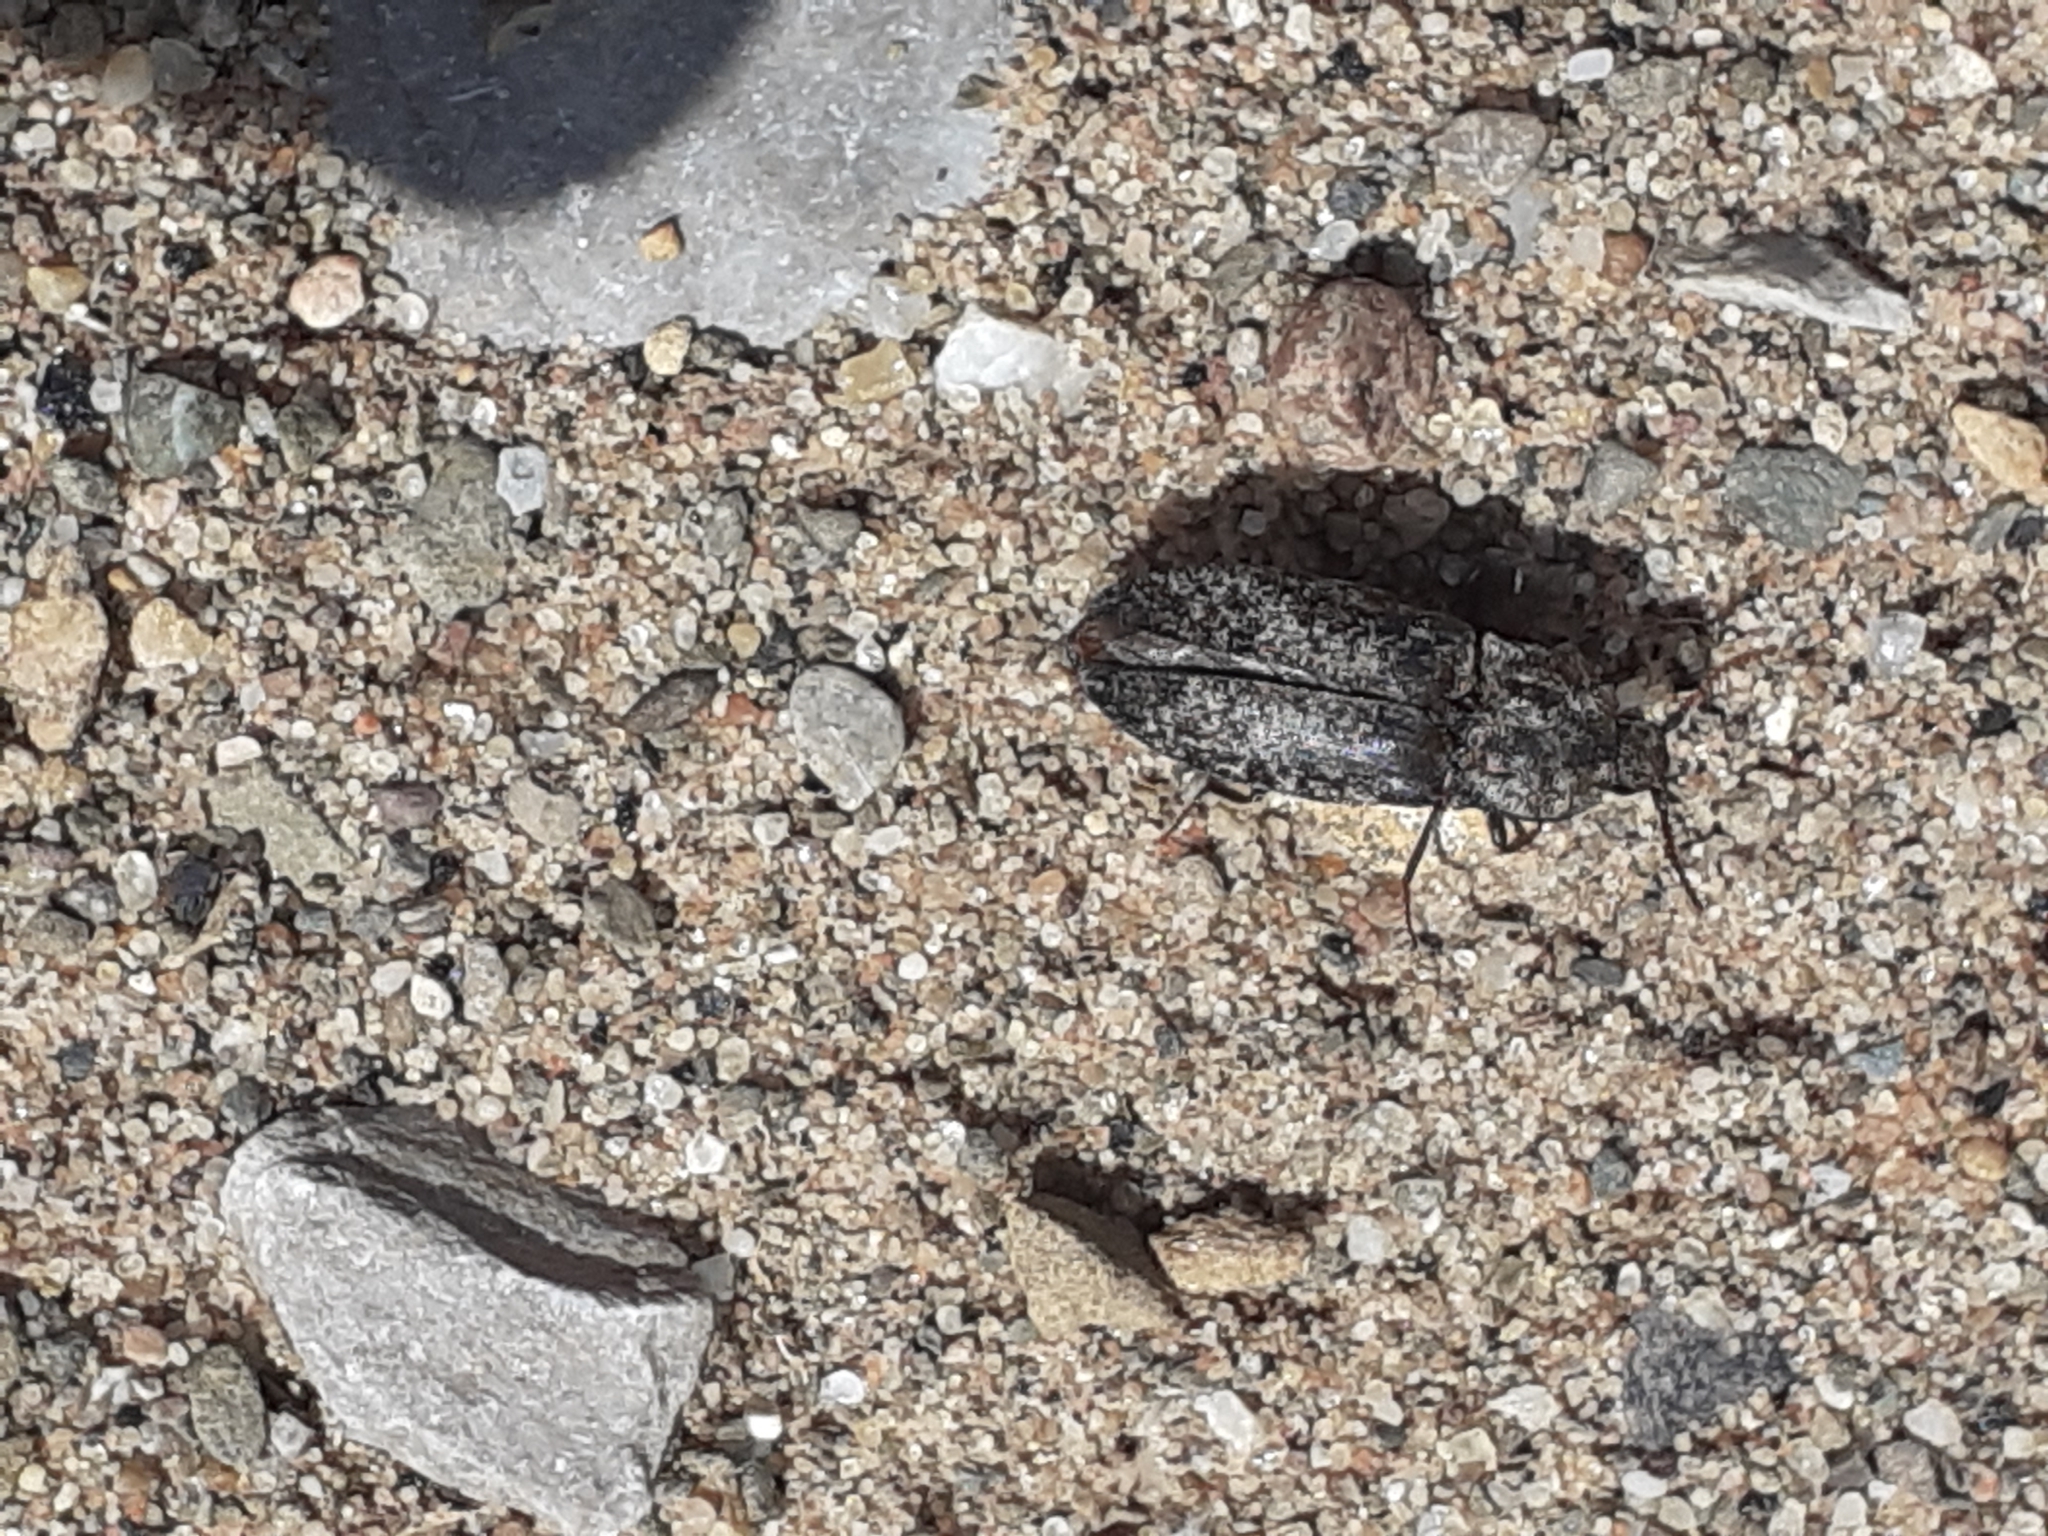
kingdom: Animalia
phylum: Arthropoda
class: Insecta
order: Coleoptera
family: Elateridae
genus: Agrypnus
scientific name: Agrypnus murinus
